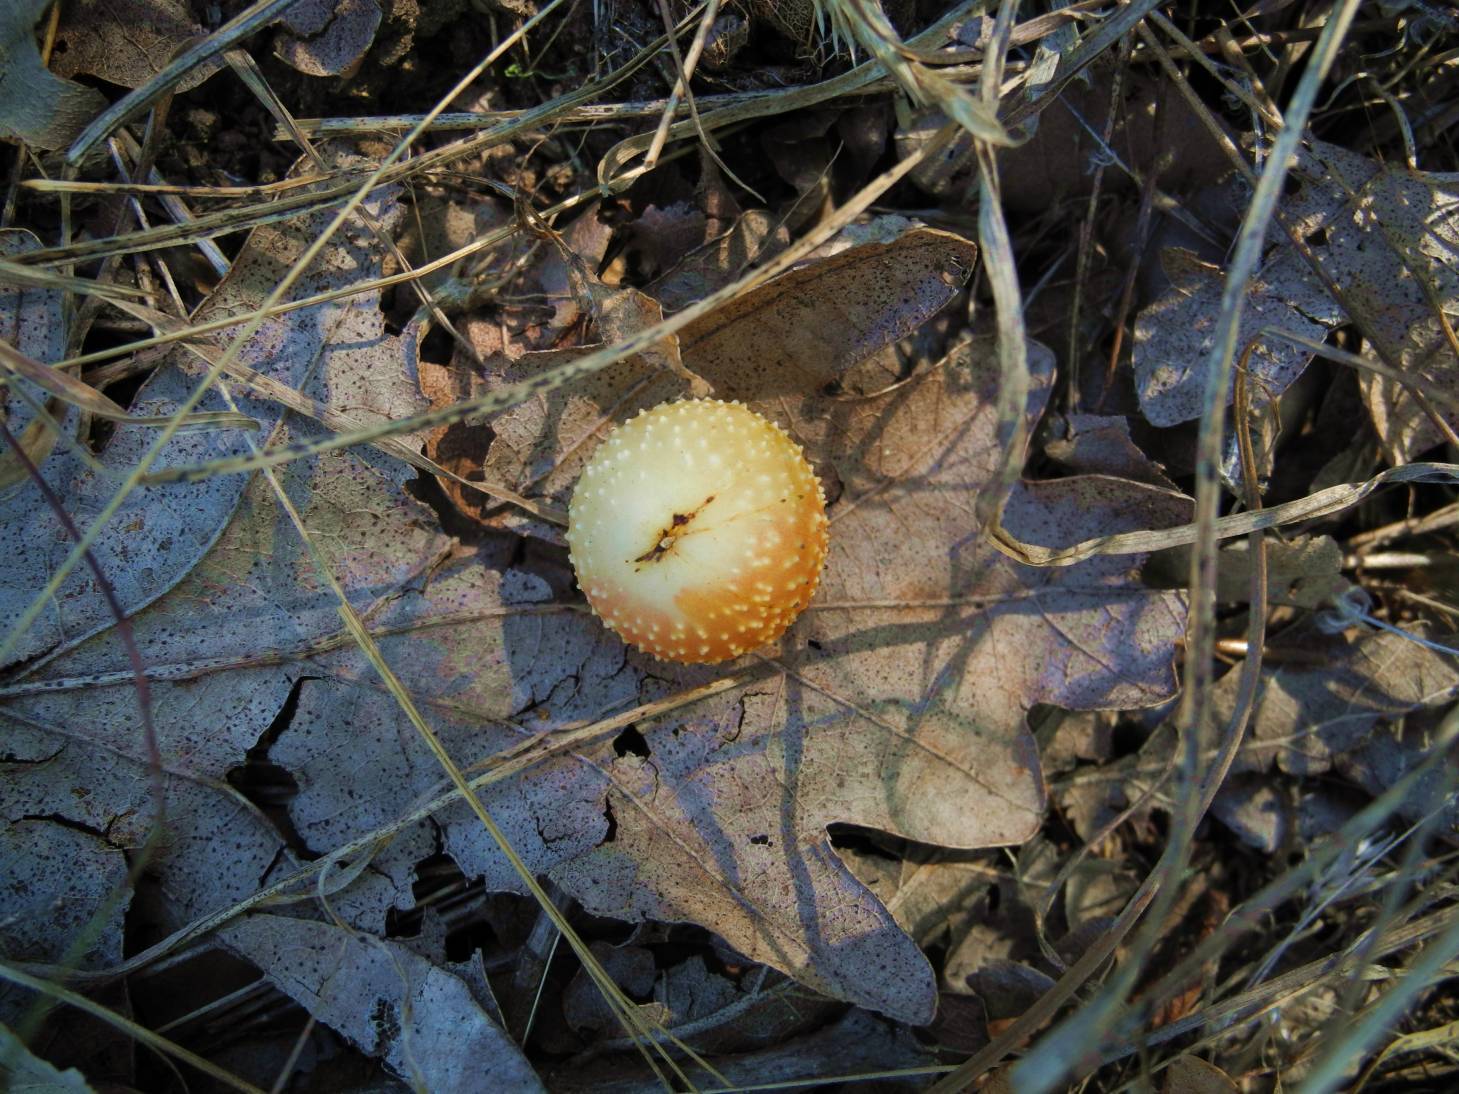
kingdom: Animalia
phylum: Arthropoda
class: Insecta
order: Hymenoptera
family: Cynipidae
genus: Cynips
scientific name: Cynips quercusfolii
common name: Cherry gall
